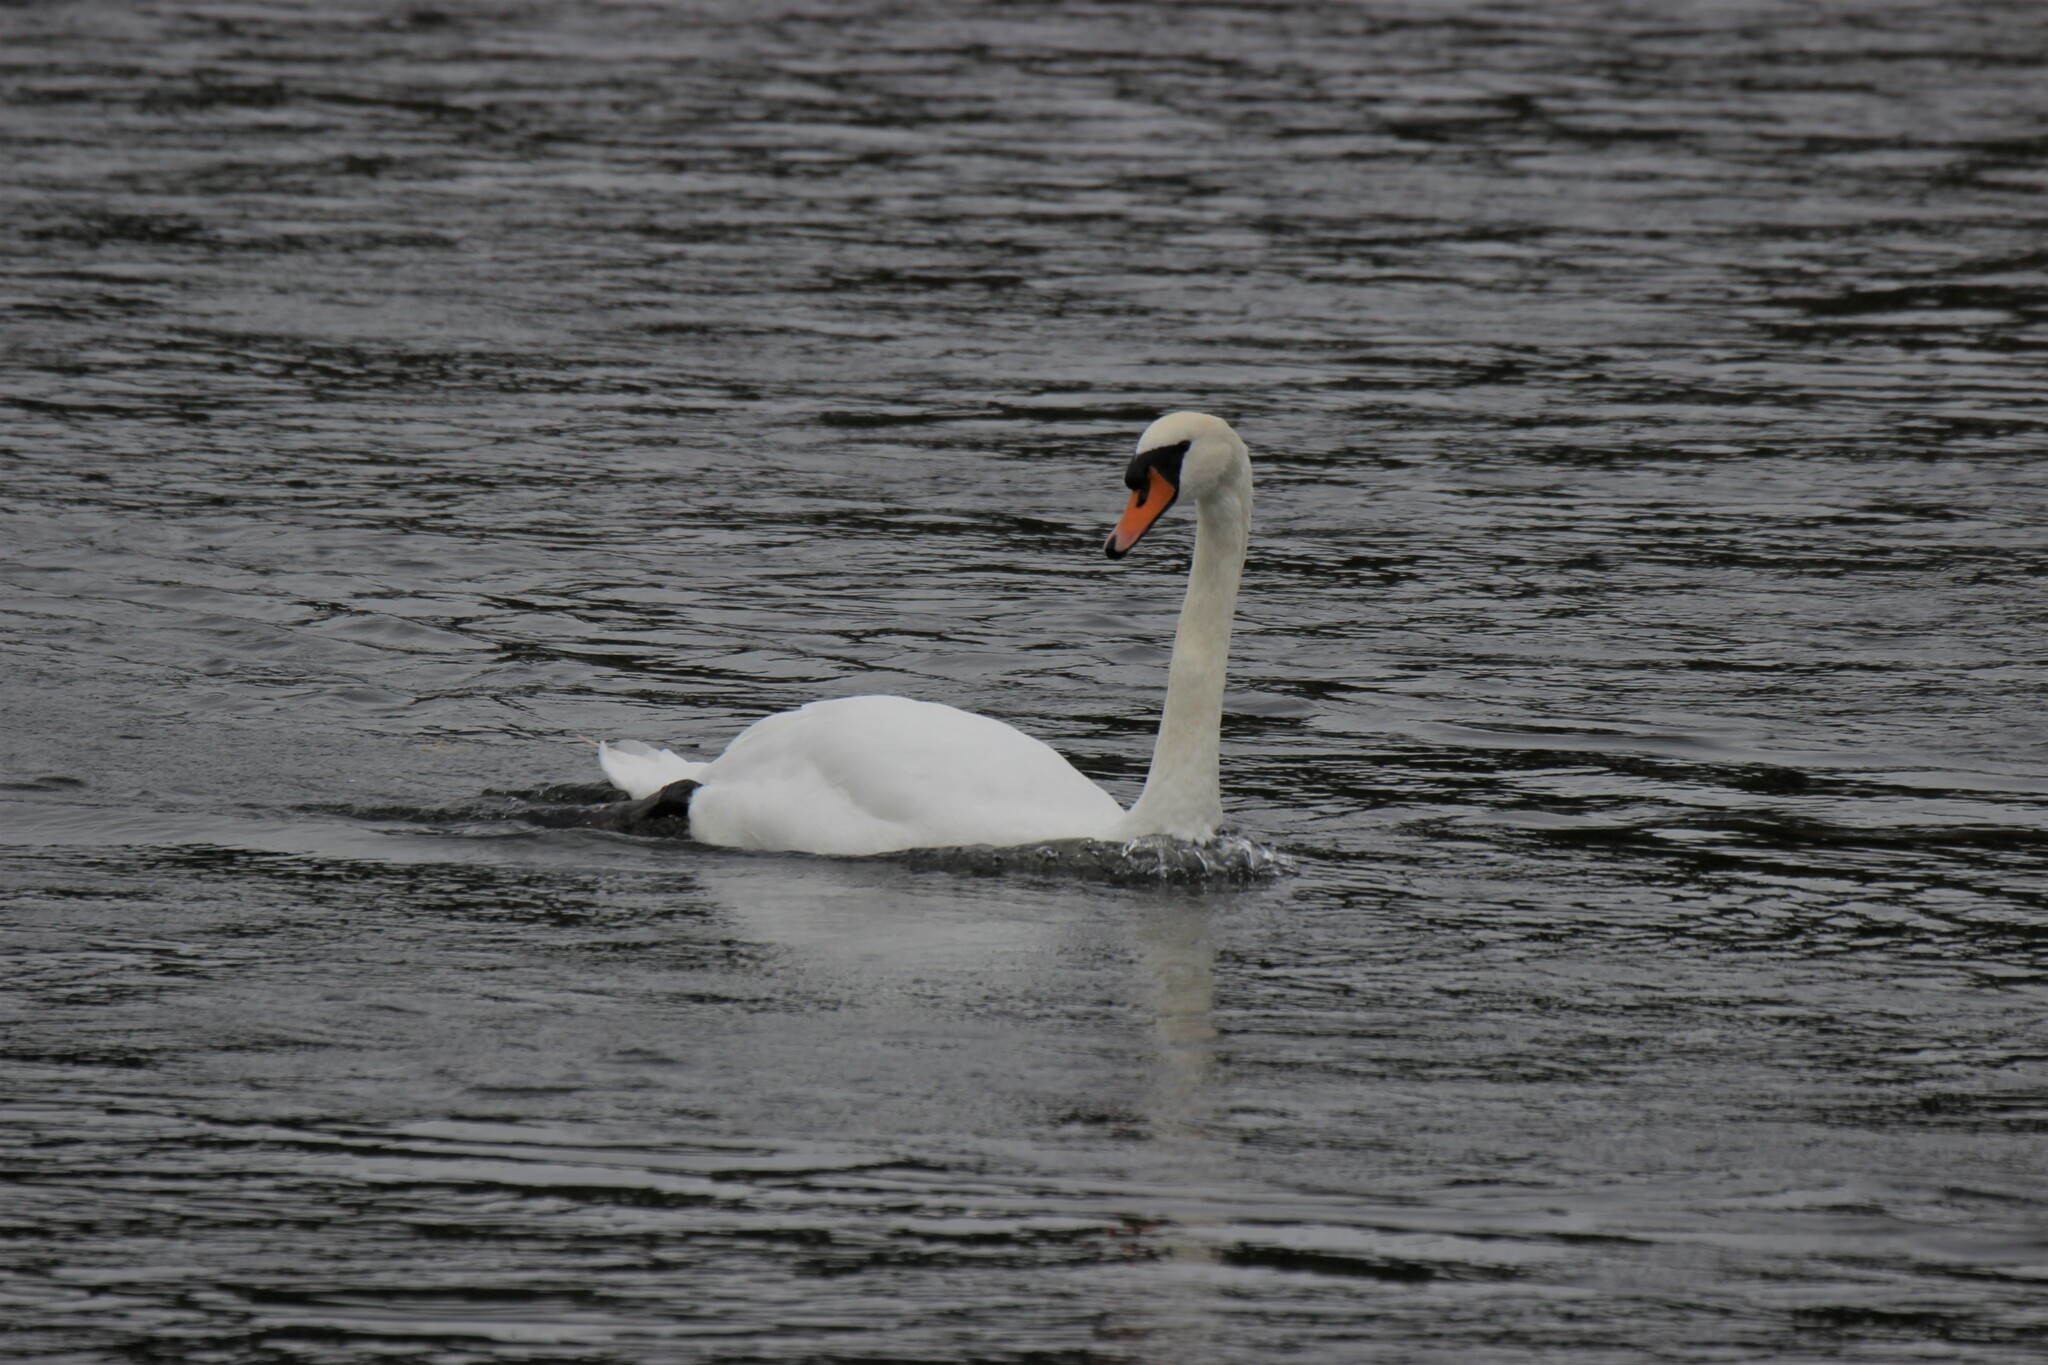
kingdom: Animalia
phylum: Chordata
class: Aves
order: Anseriformes
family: Anatidae
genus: Cygnus
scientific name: Cygnus olor
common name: Mute swan
